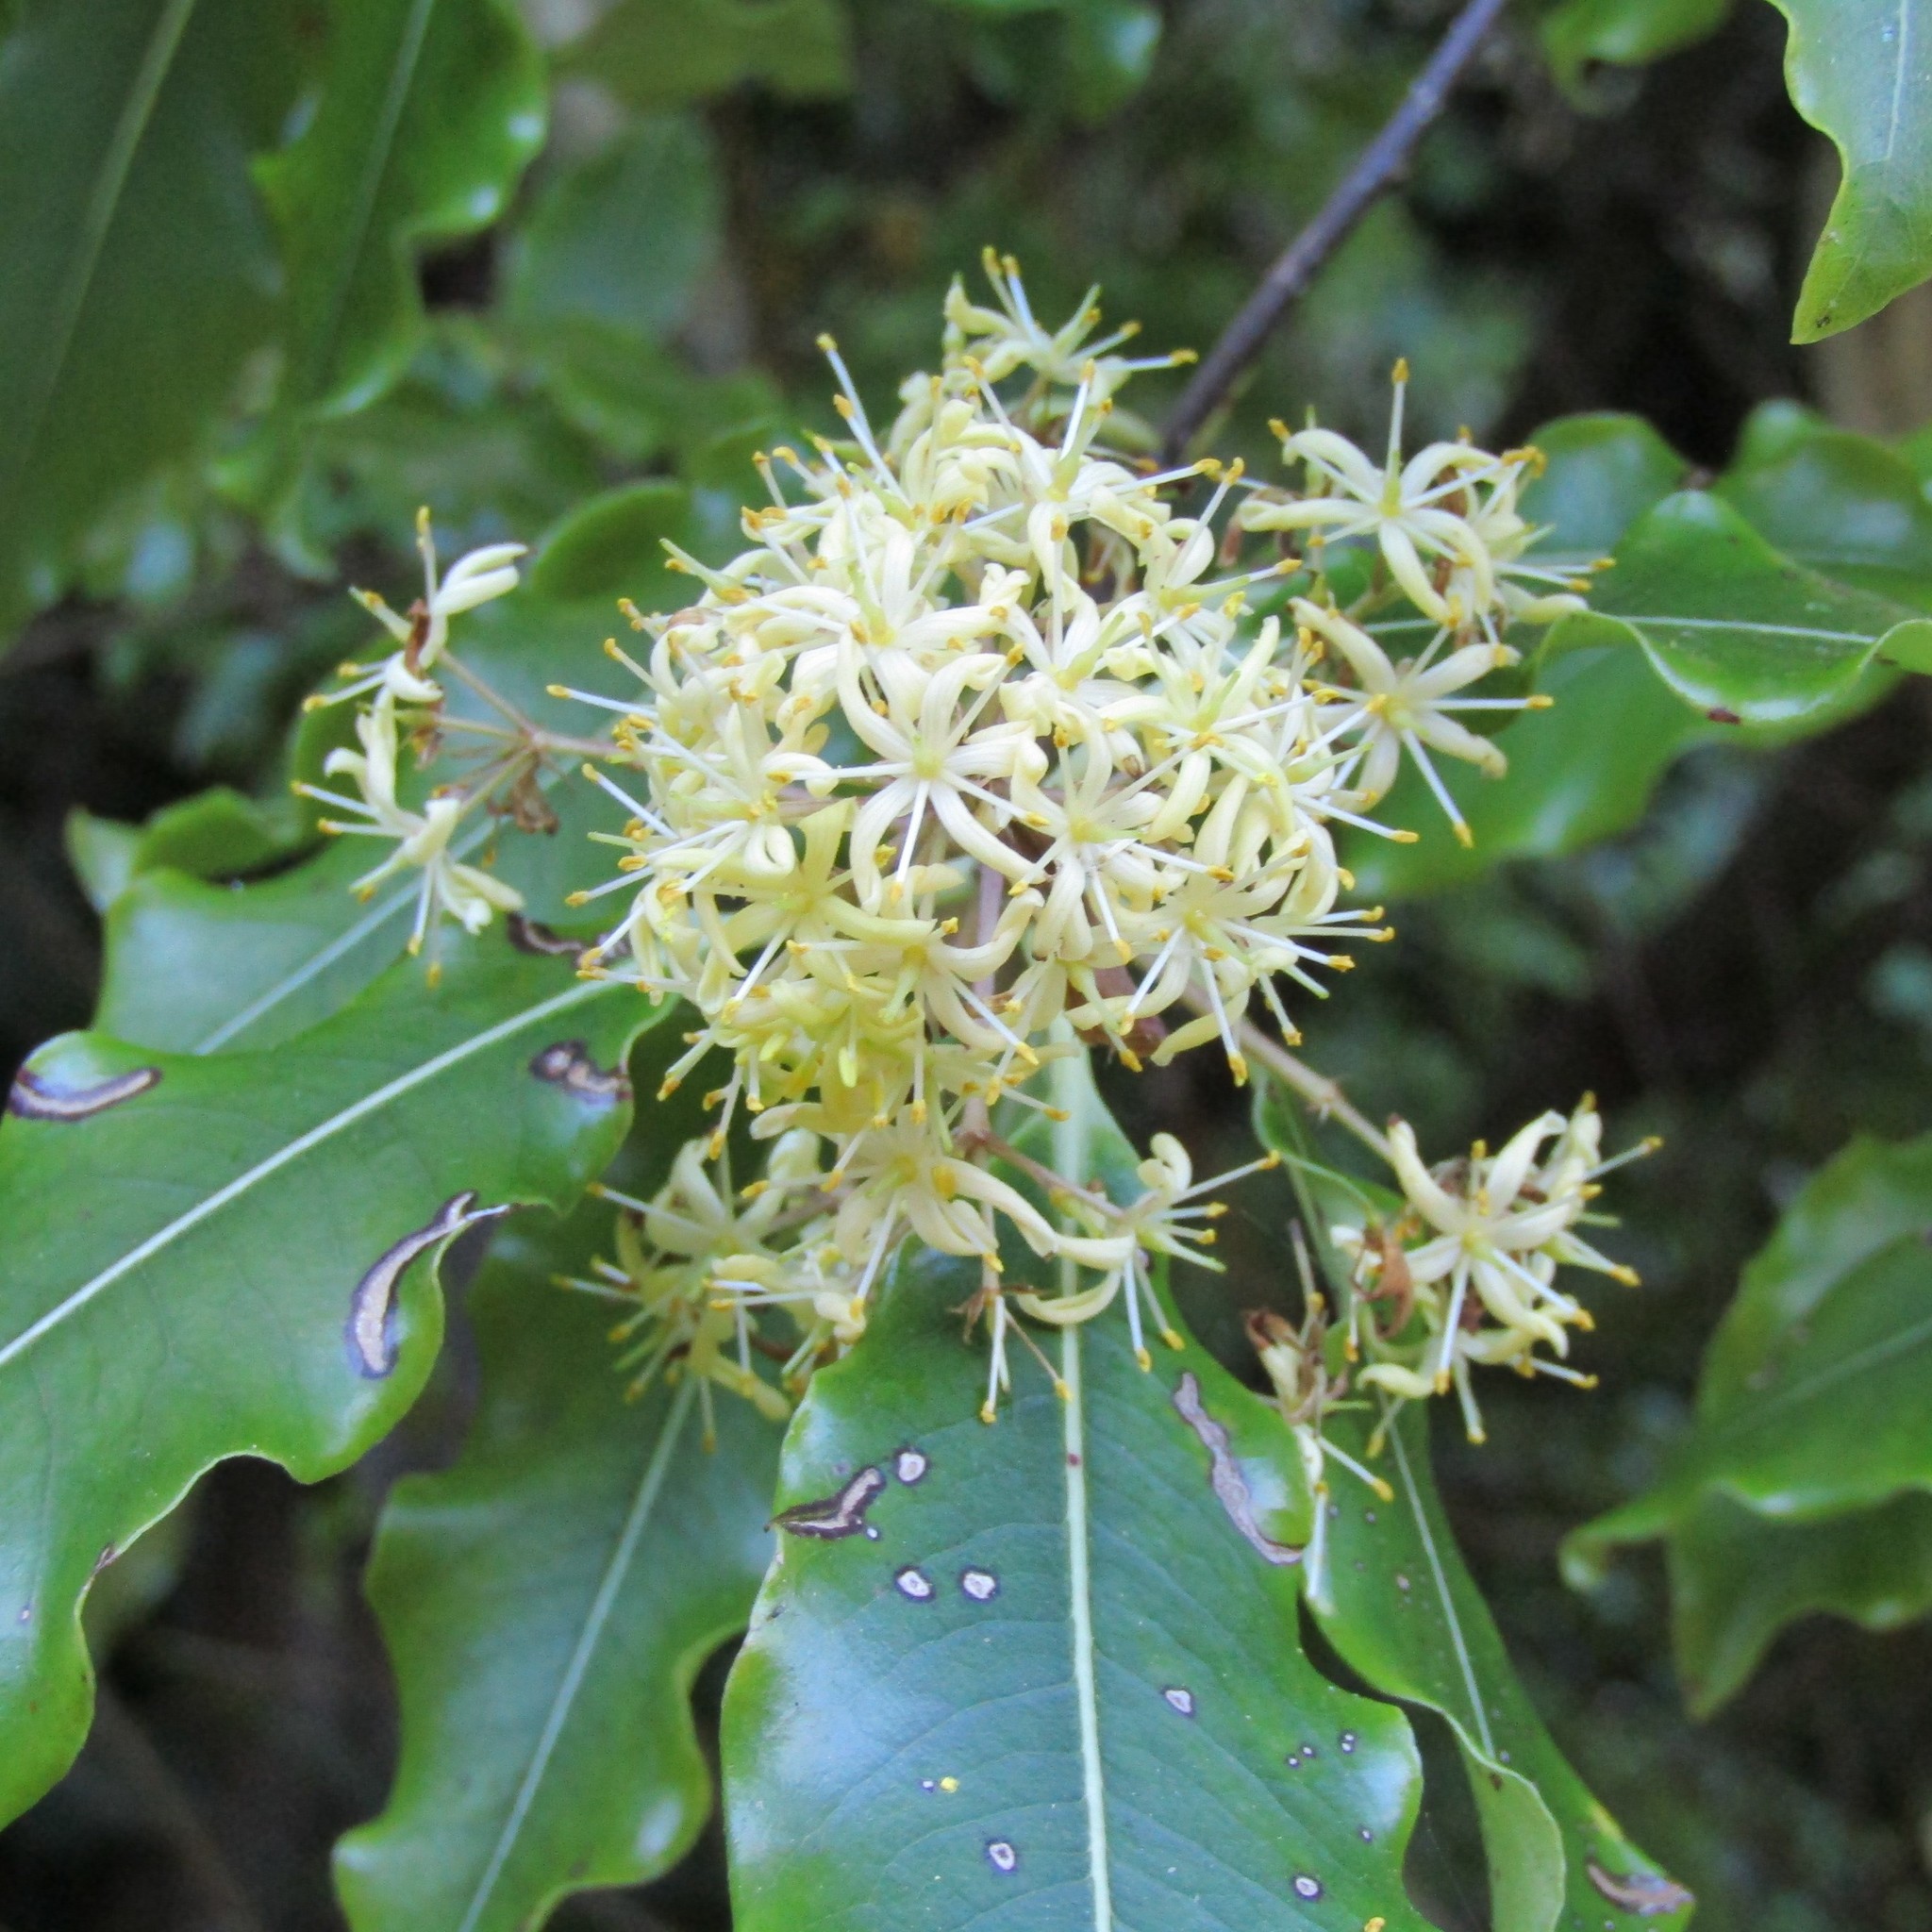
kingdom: Plantae
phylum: Tracheophyta
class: Magnoliopsida
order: Apiales
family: Pittosporaceae
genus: Pittosporum
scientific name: Pittosporum eugenioides
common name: Lemonwood
